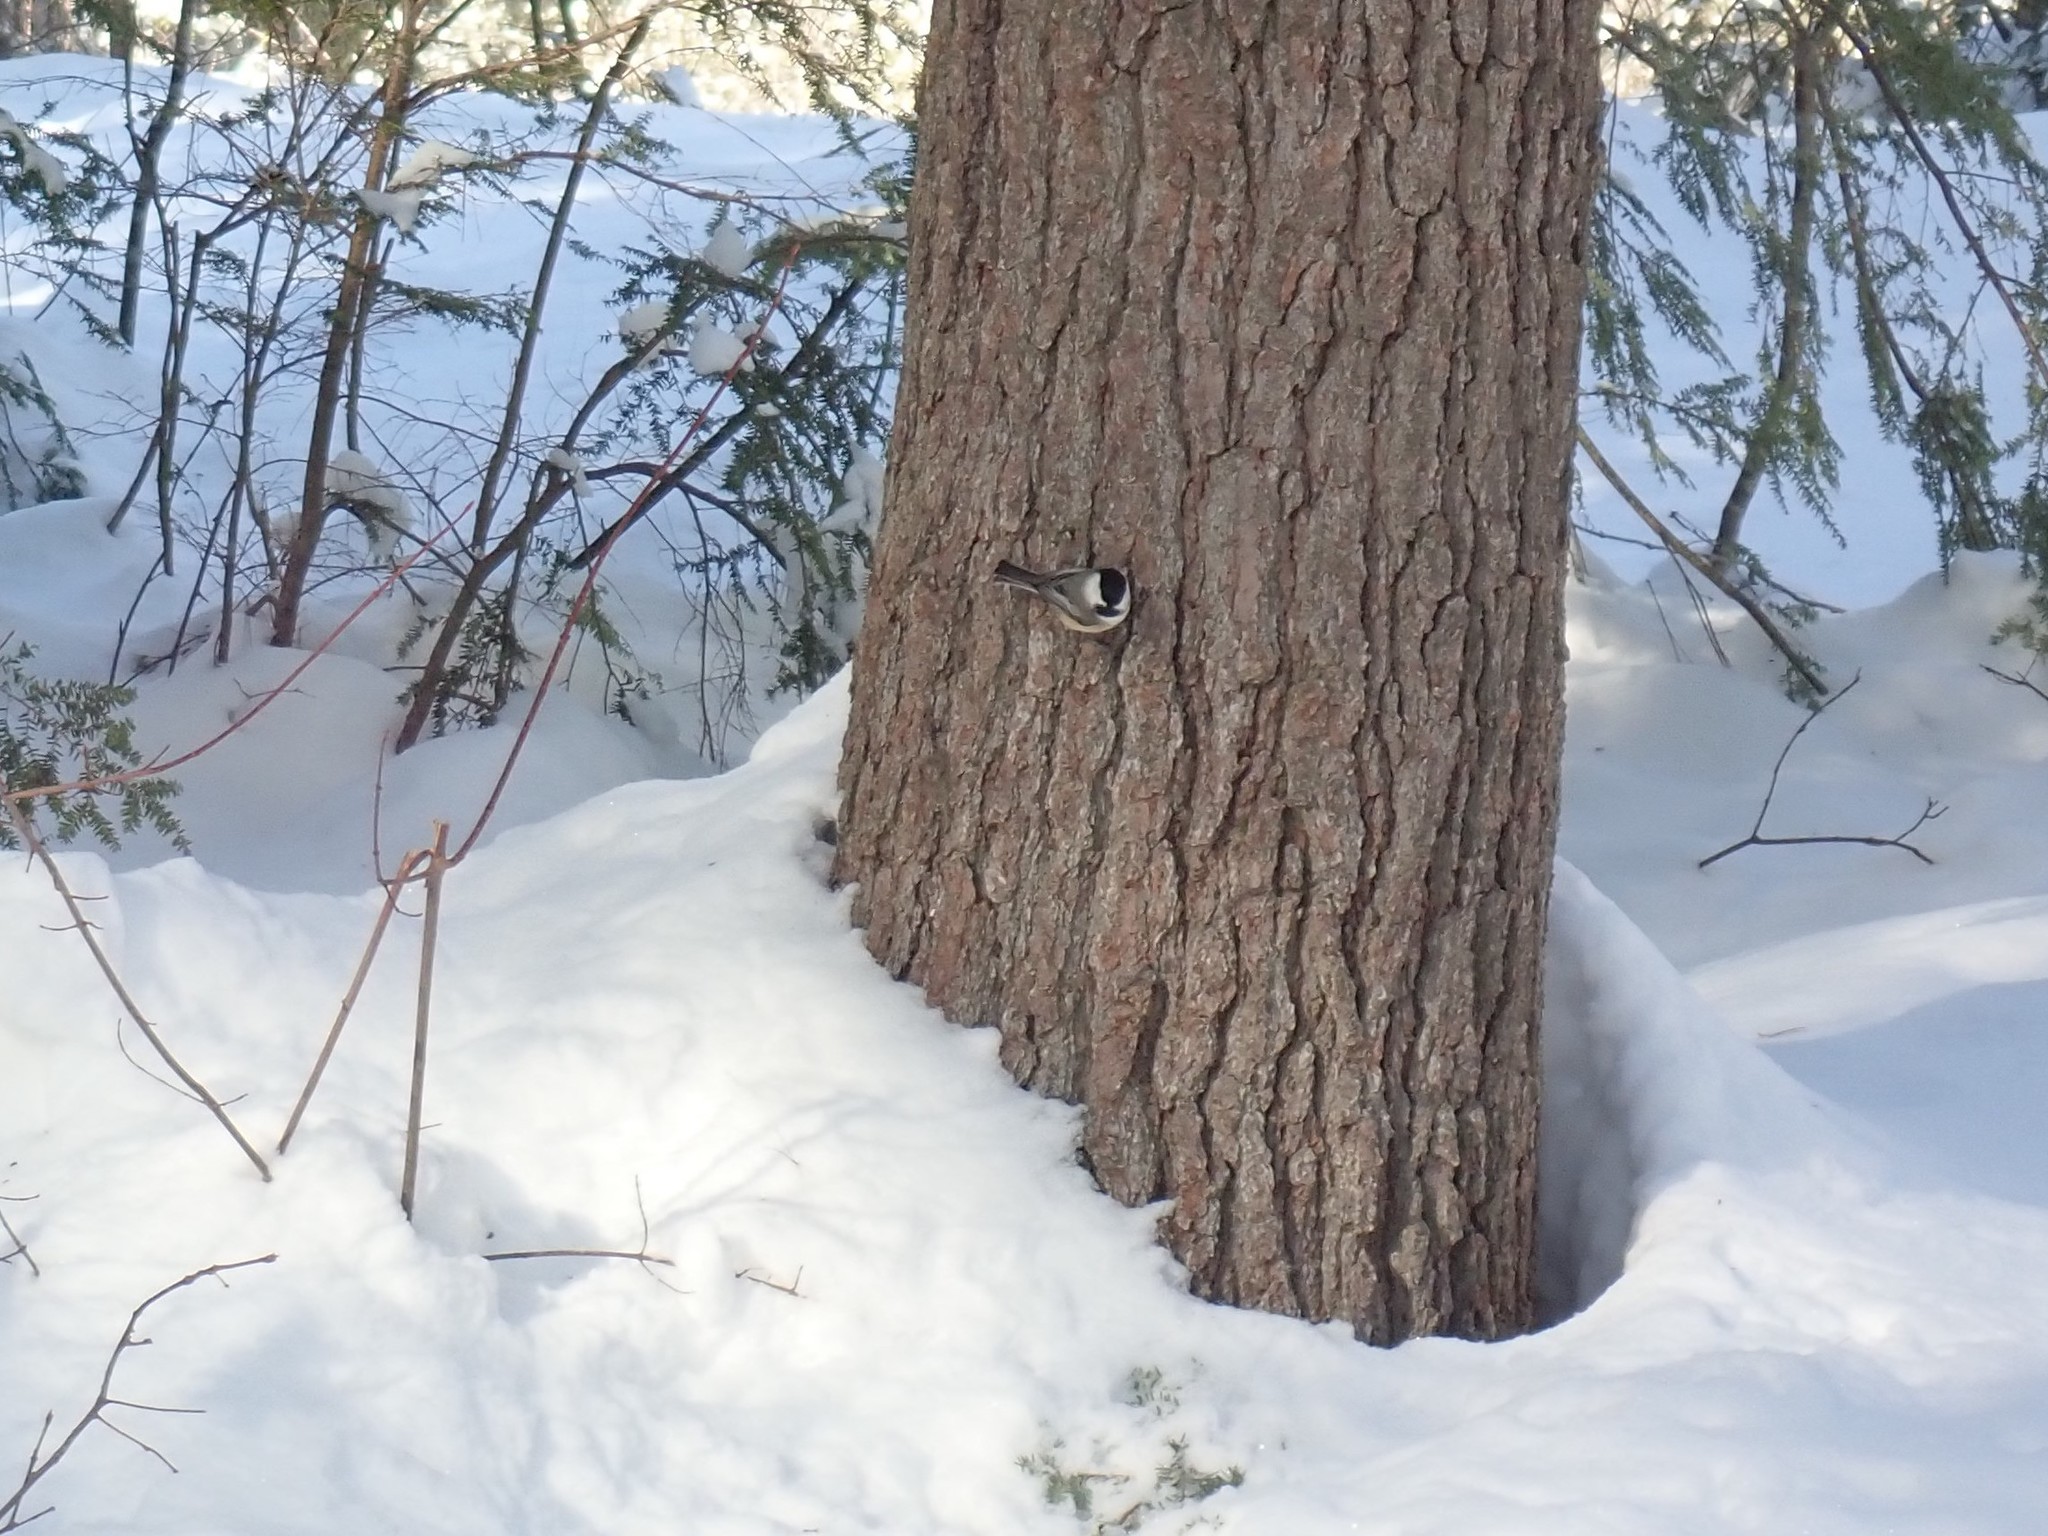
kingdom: Animalia
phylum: Chordata
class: Aves
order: Passeriformes
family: Paridae
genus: Poecile
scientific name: Poecile atricapillus
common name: Black-capped chickadee
